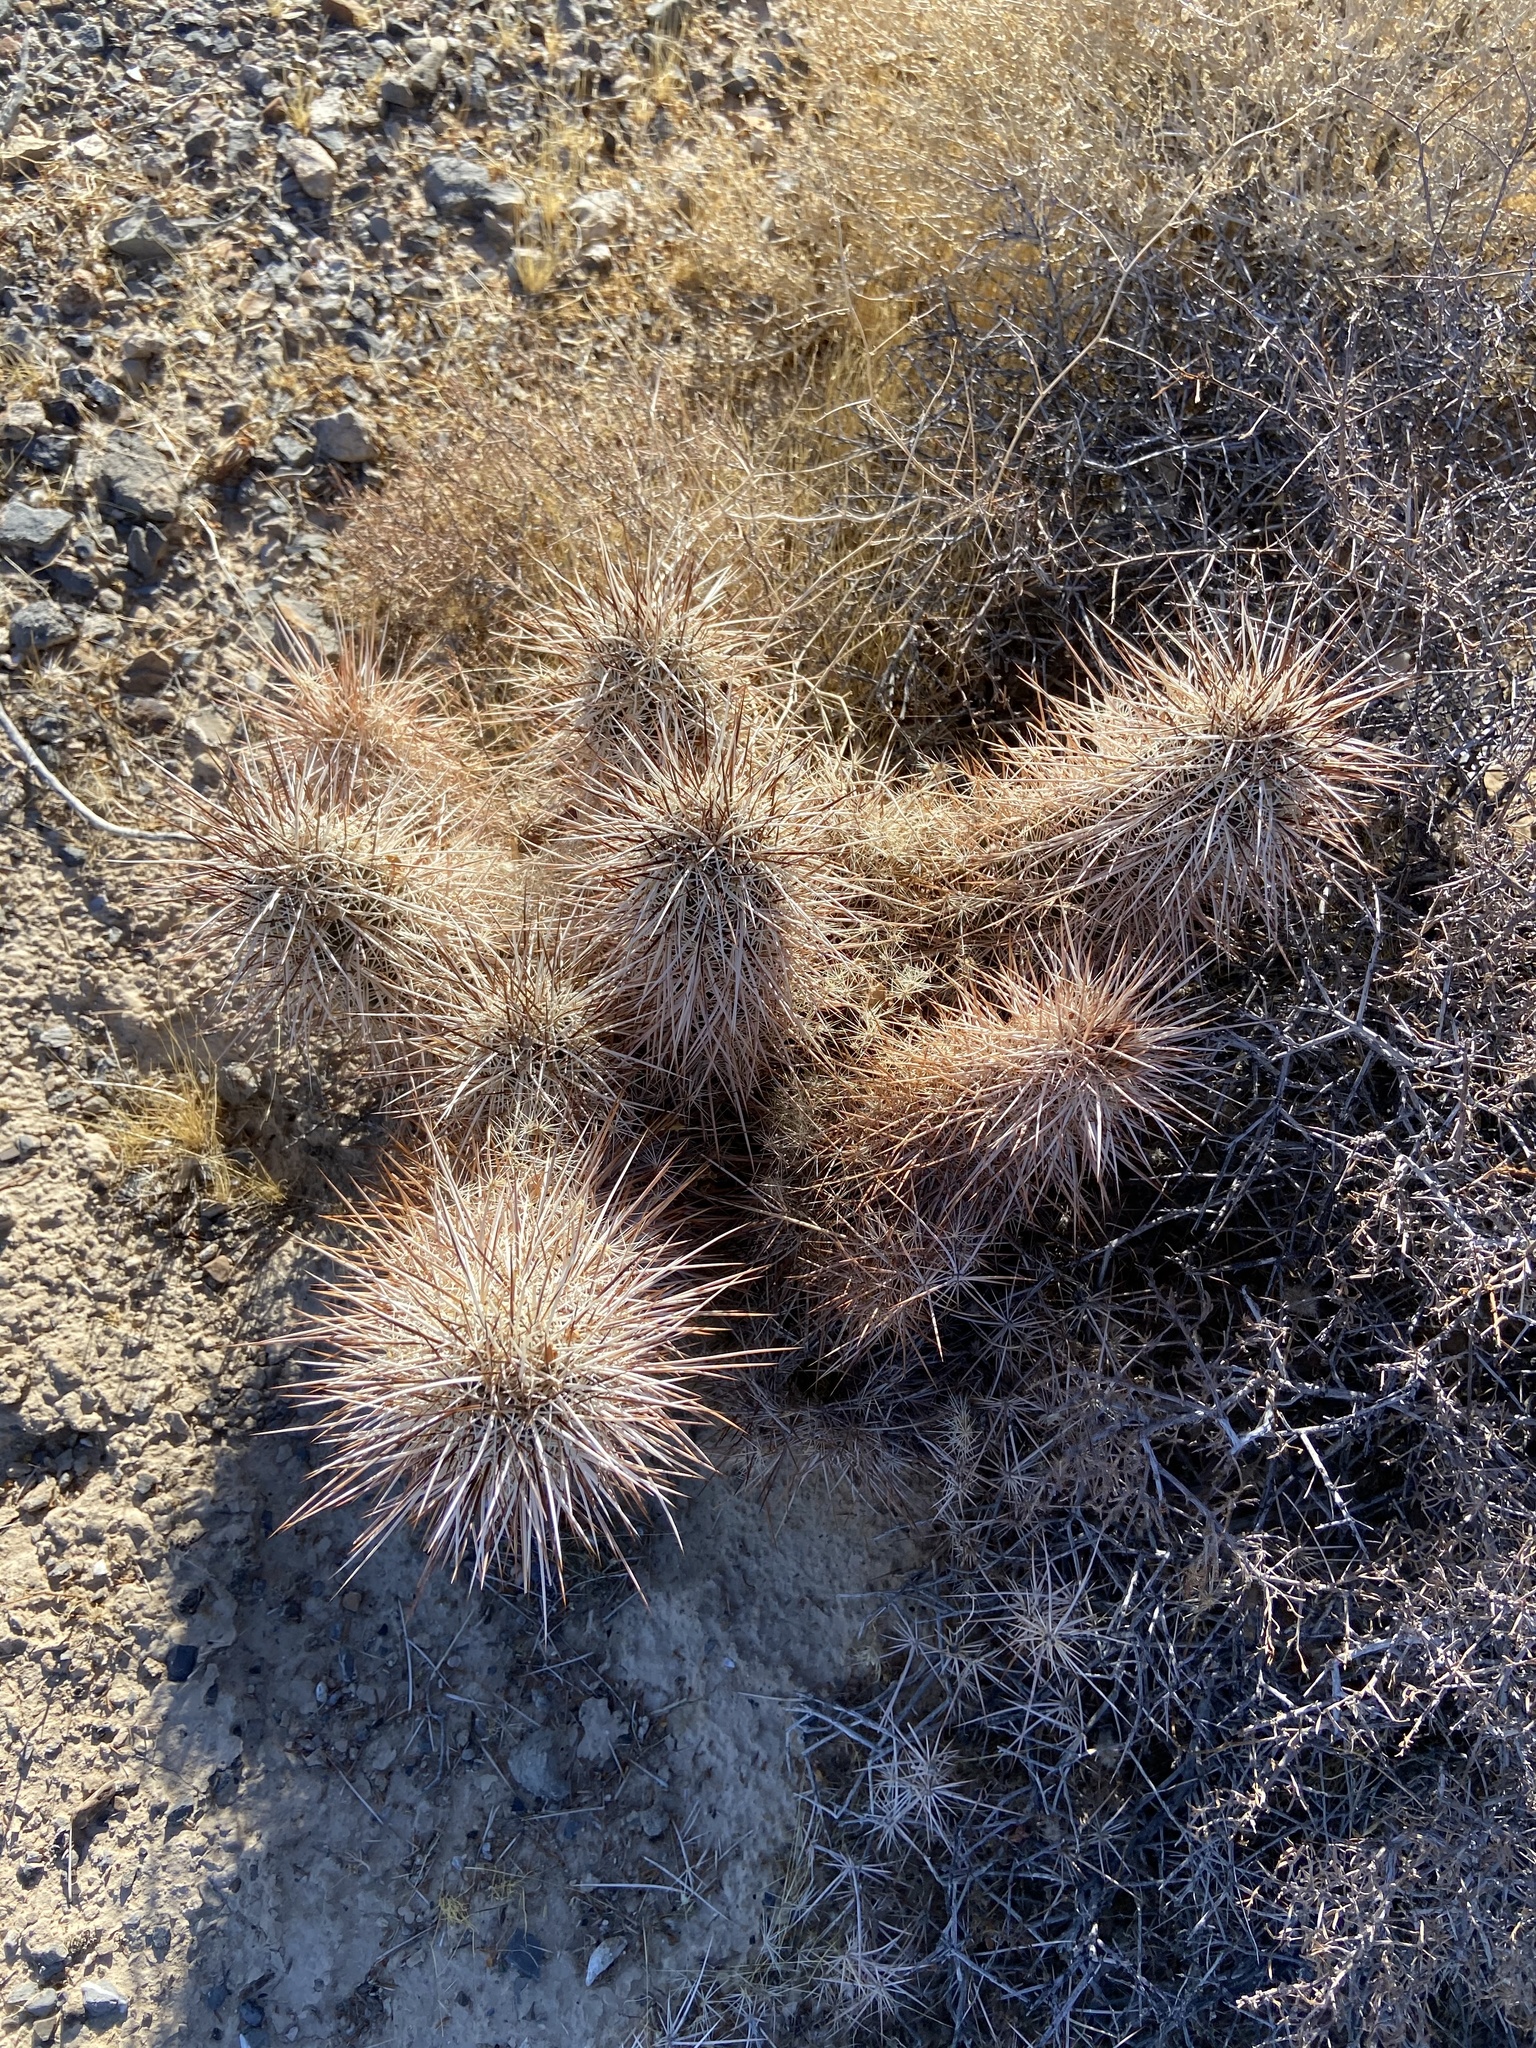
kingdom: Plantae
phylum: Tracheophyta
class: Magnoliopsida
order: Caryophyllales
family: Cactaceae
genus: Echinocereus
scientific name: Echinocereus engelmannii
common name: Engelmann's hedgehog cactus
